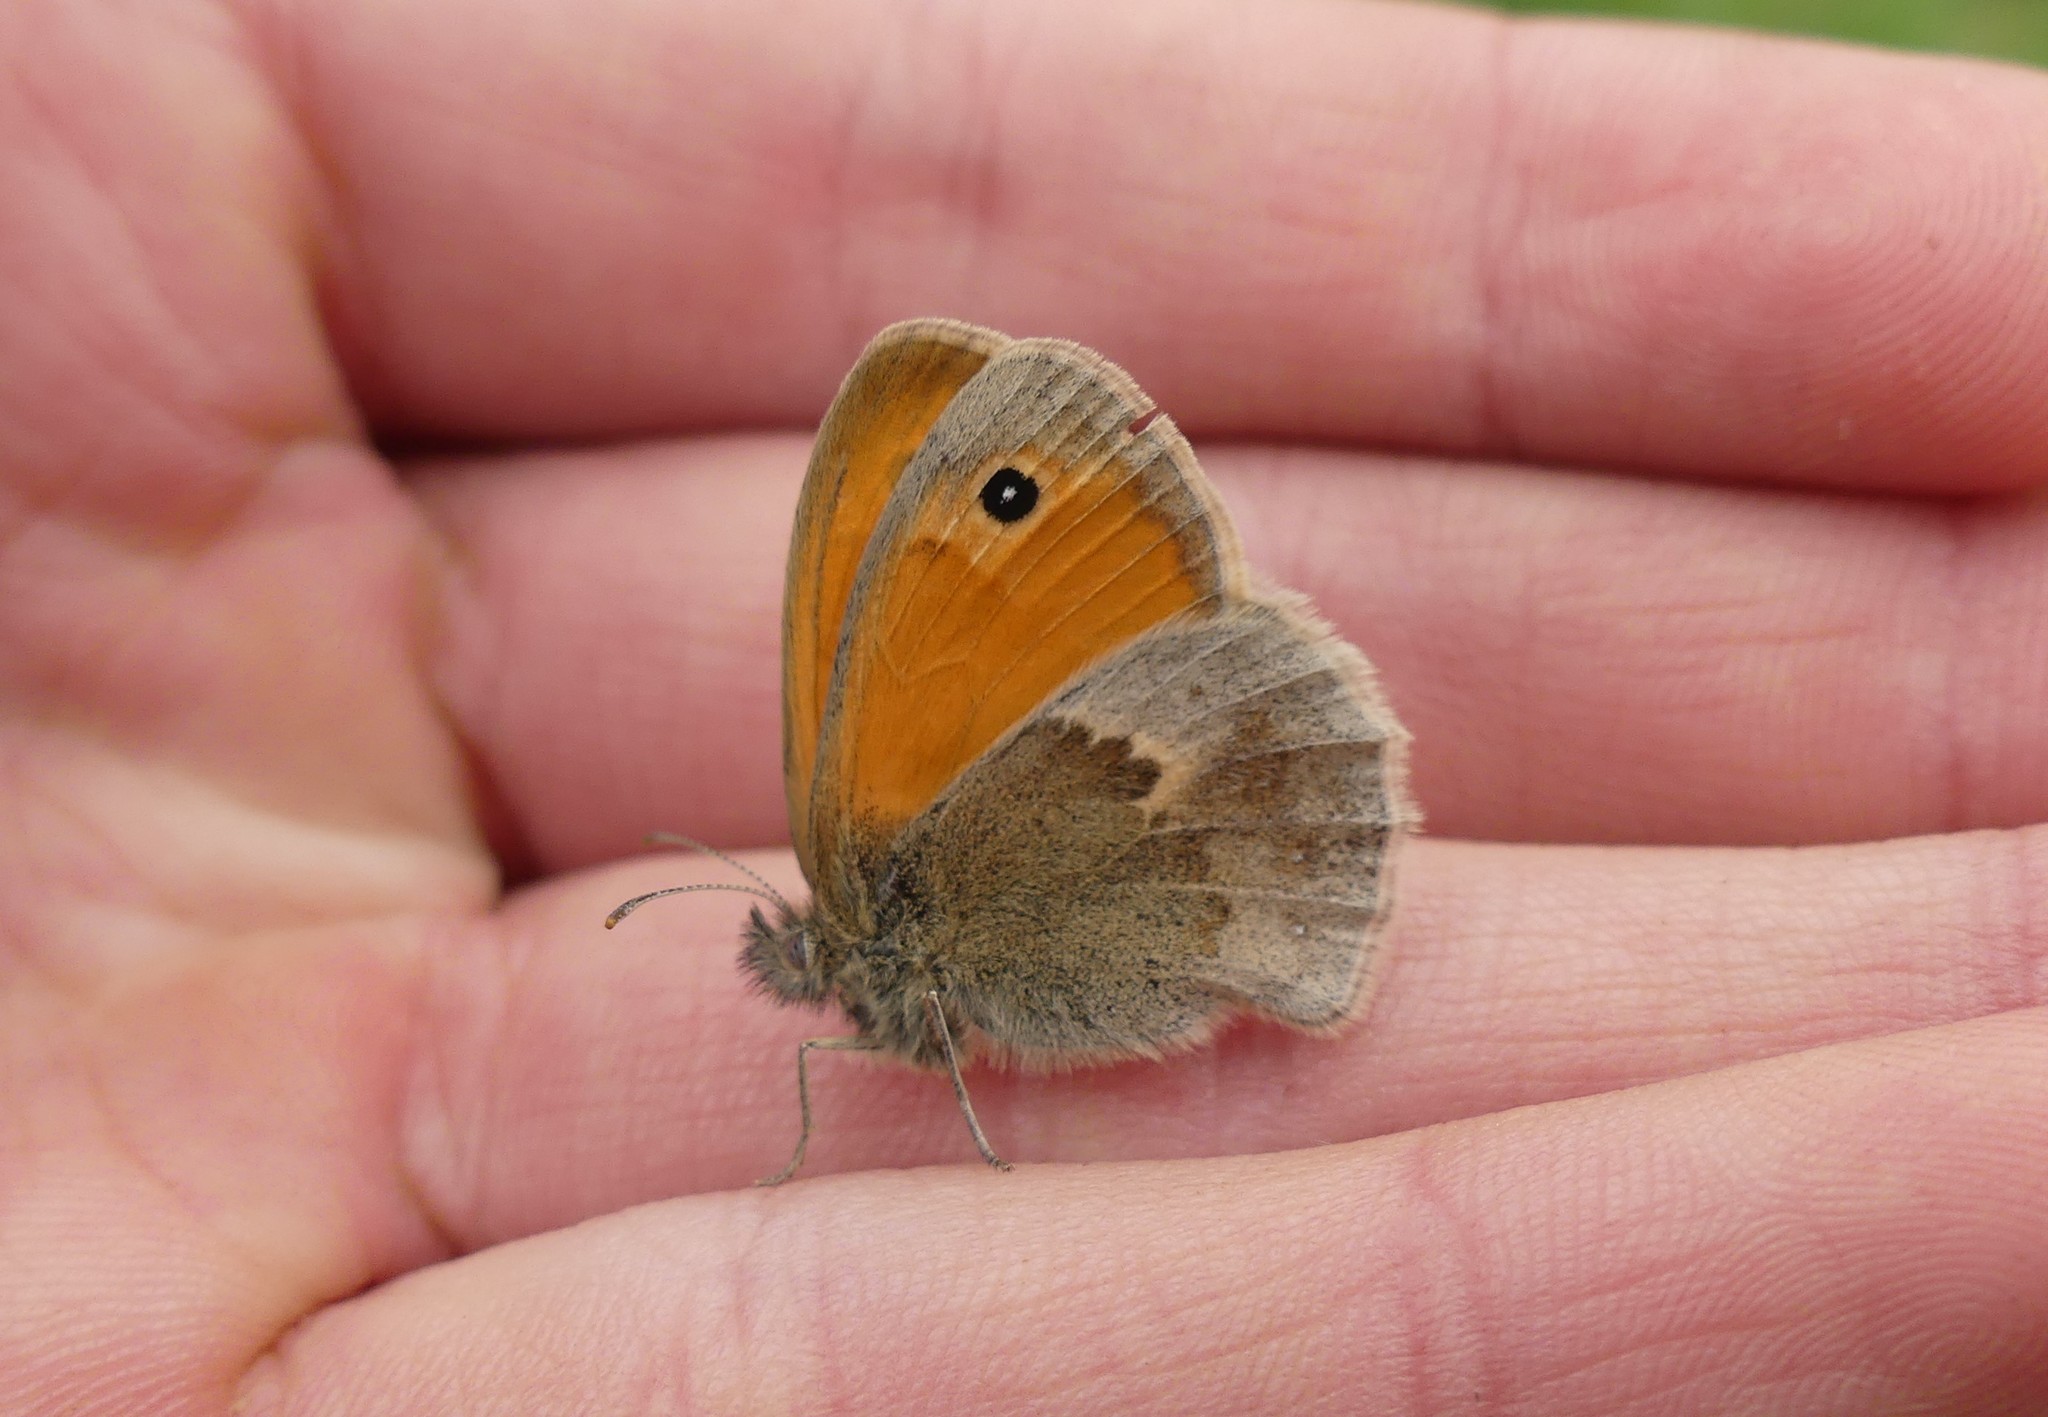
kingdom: Animalia
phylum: Arthropoda
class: Insecta
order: Lepidoptera
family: Nymphalidae
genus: Coenonympha
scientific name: Coenonympha pamphilus
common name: Small heath
